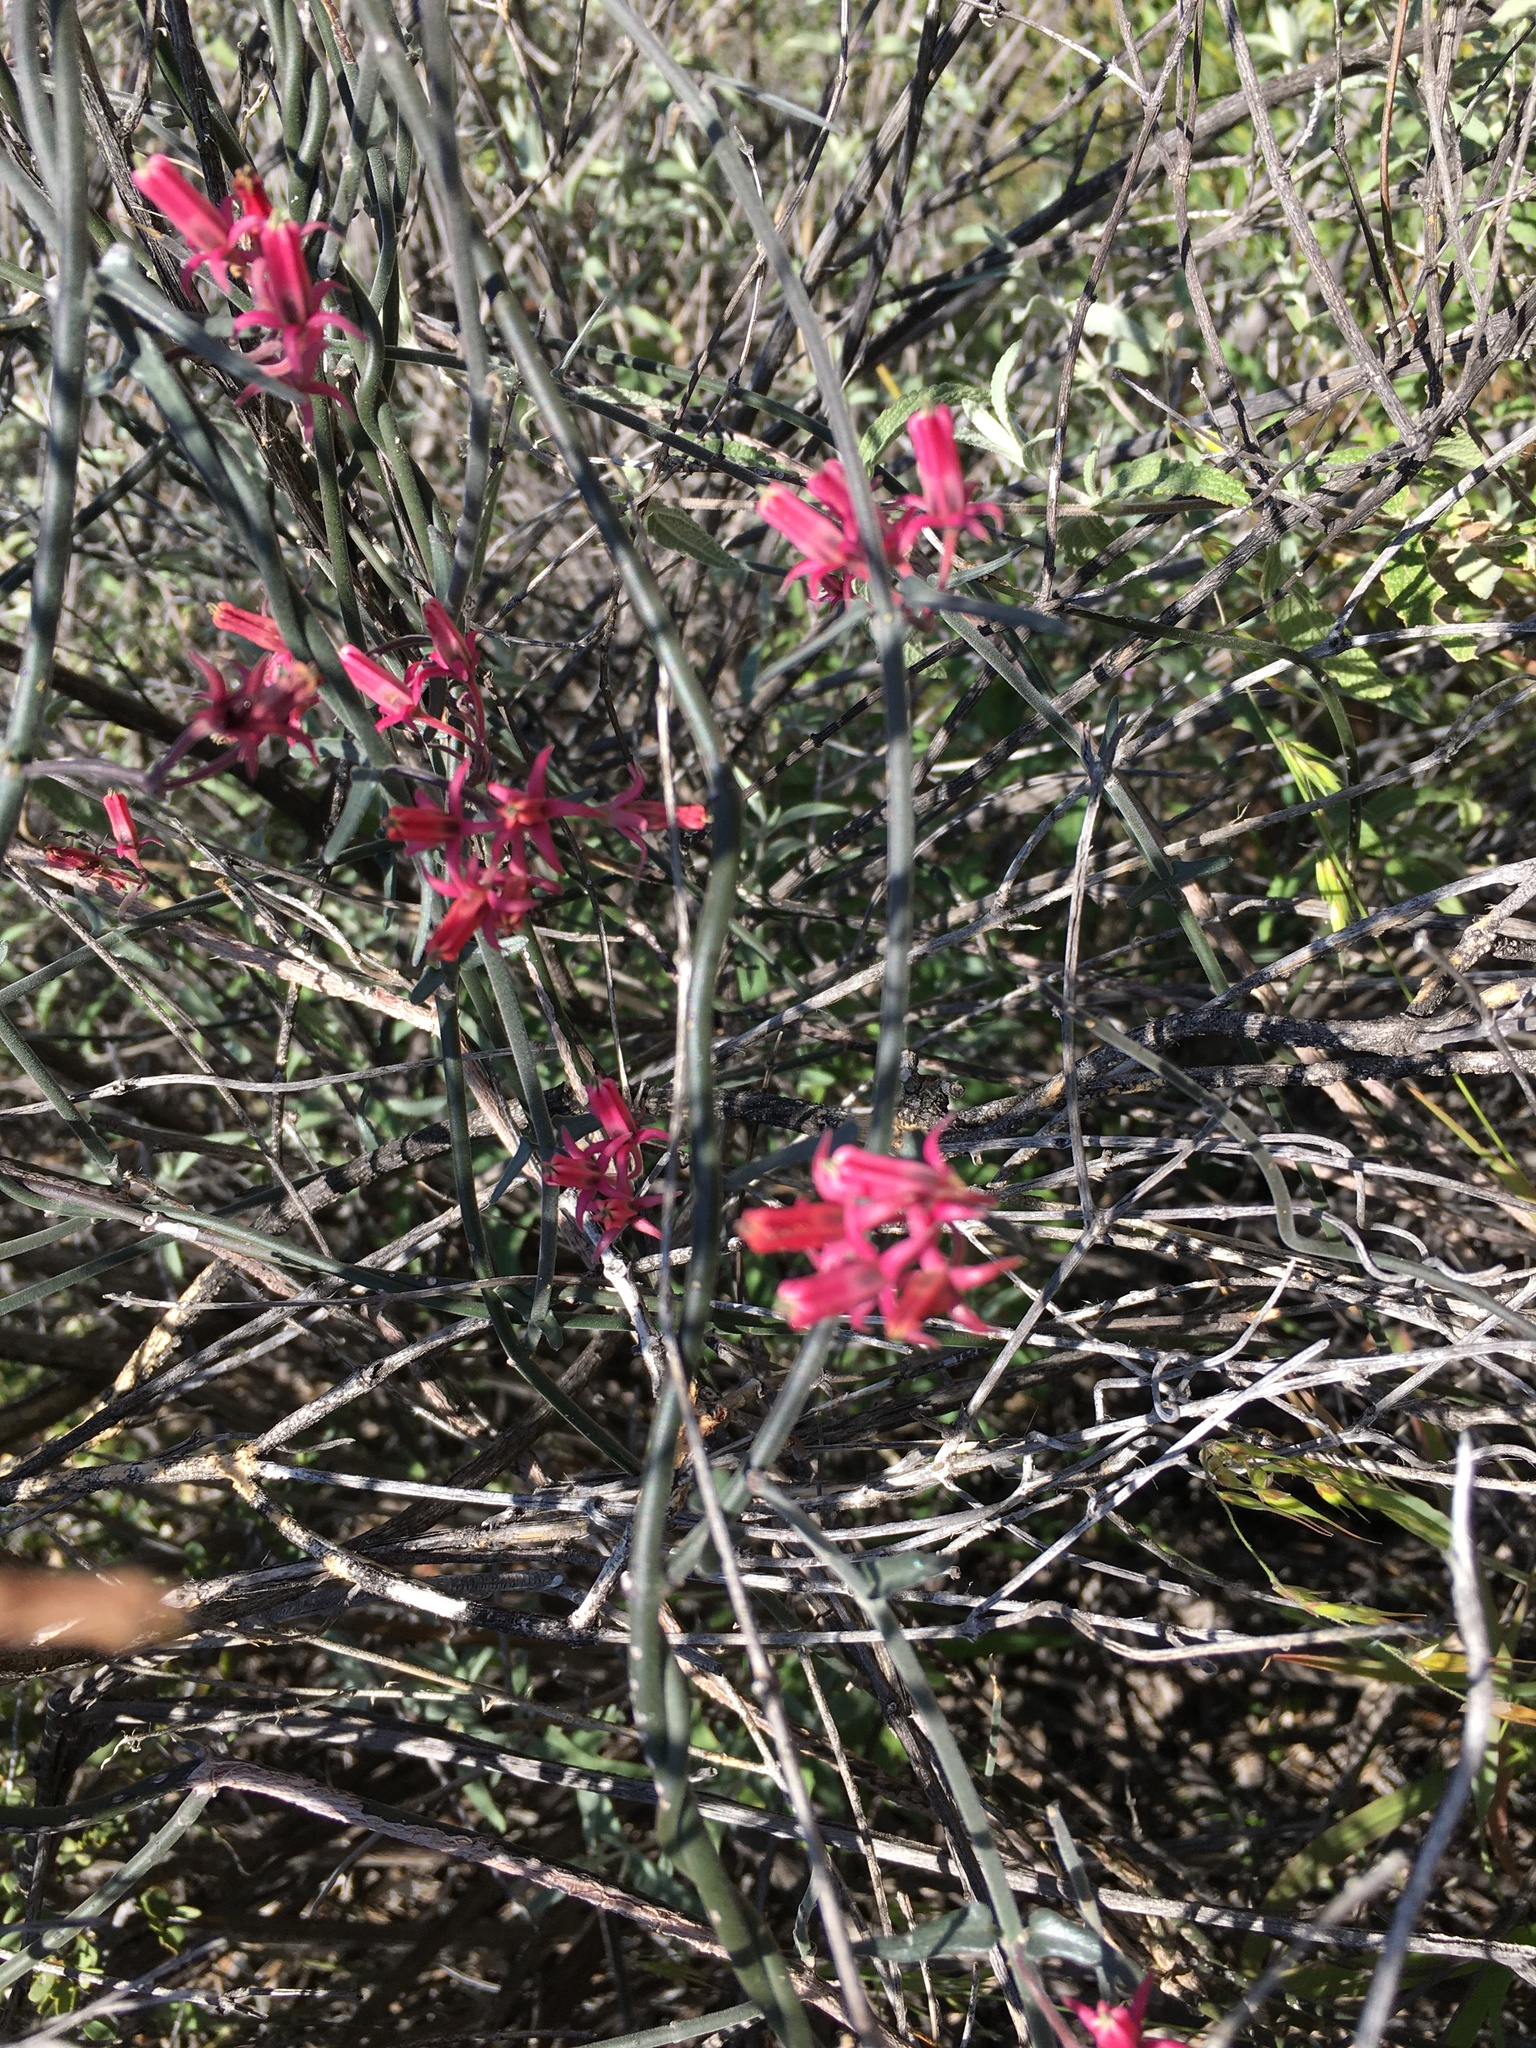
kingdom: Plantae
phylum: Tracheophyta
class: Magnoliopsida
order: Gentianales
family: Apocynaceae
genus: Microloma
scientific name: Microloma sagittatum
